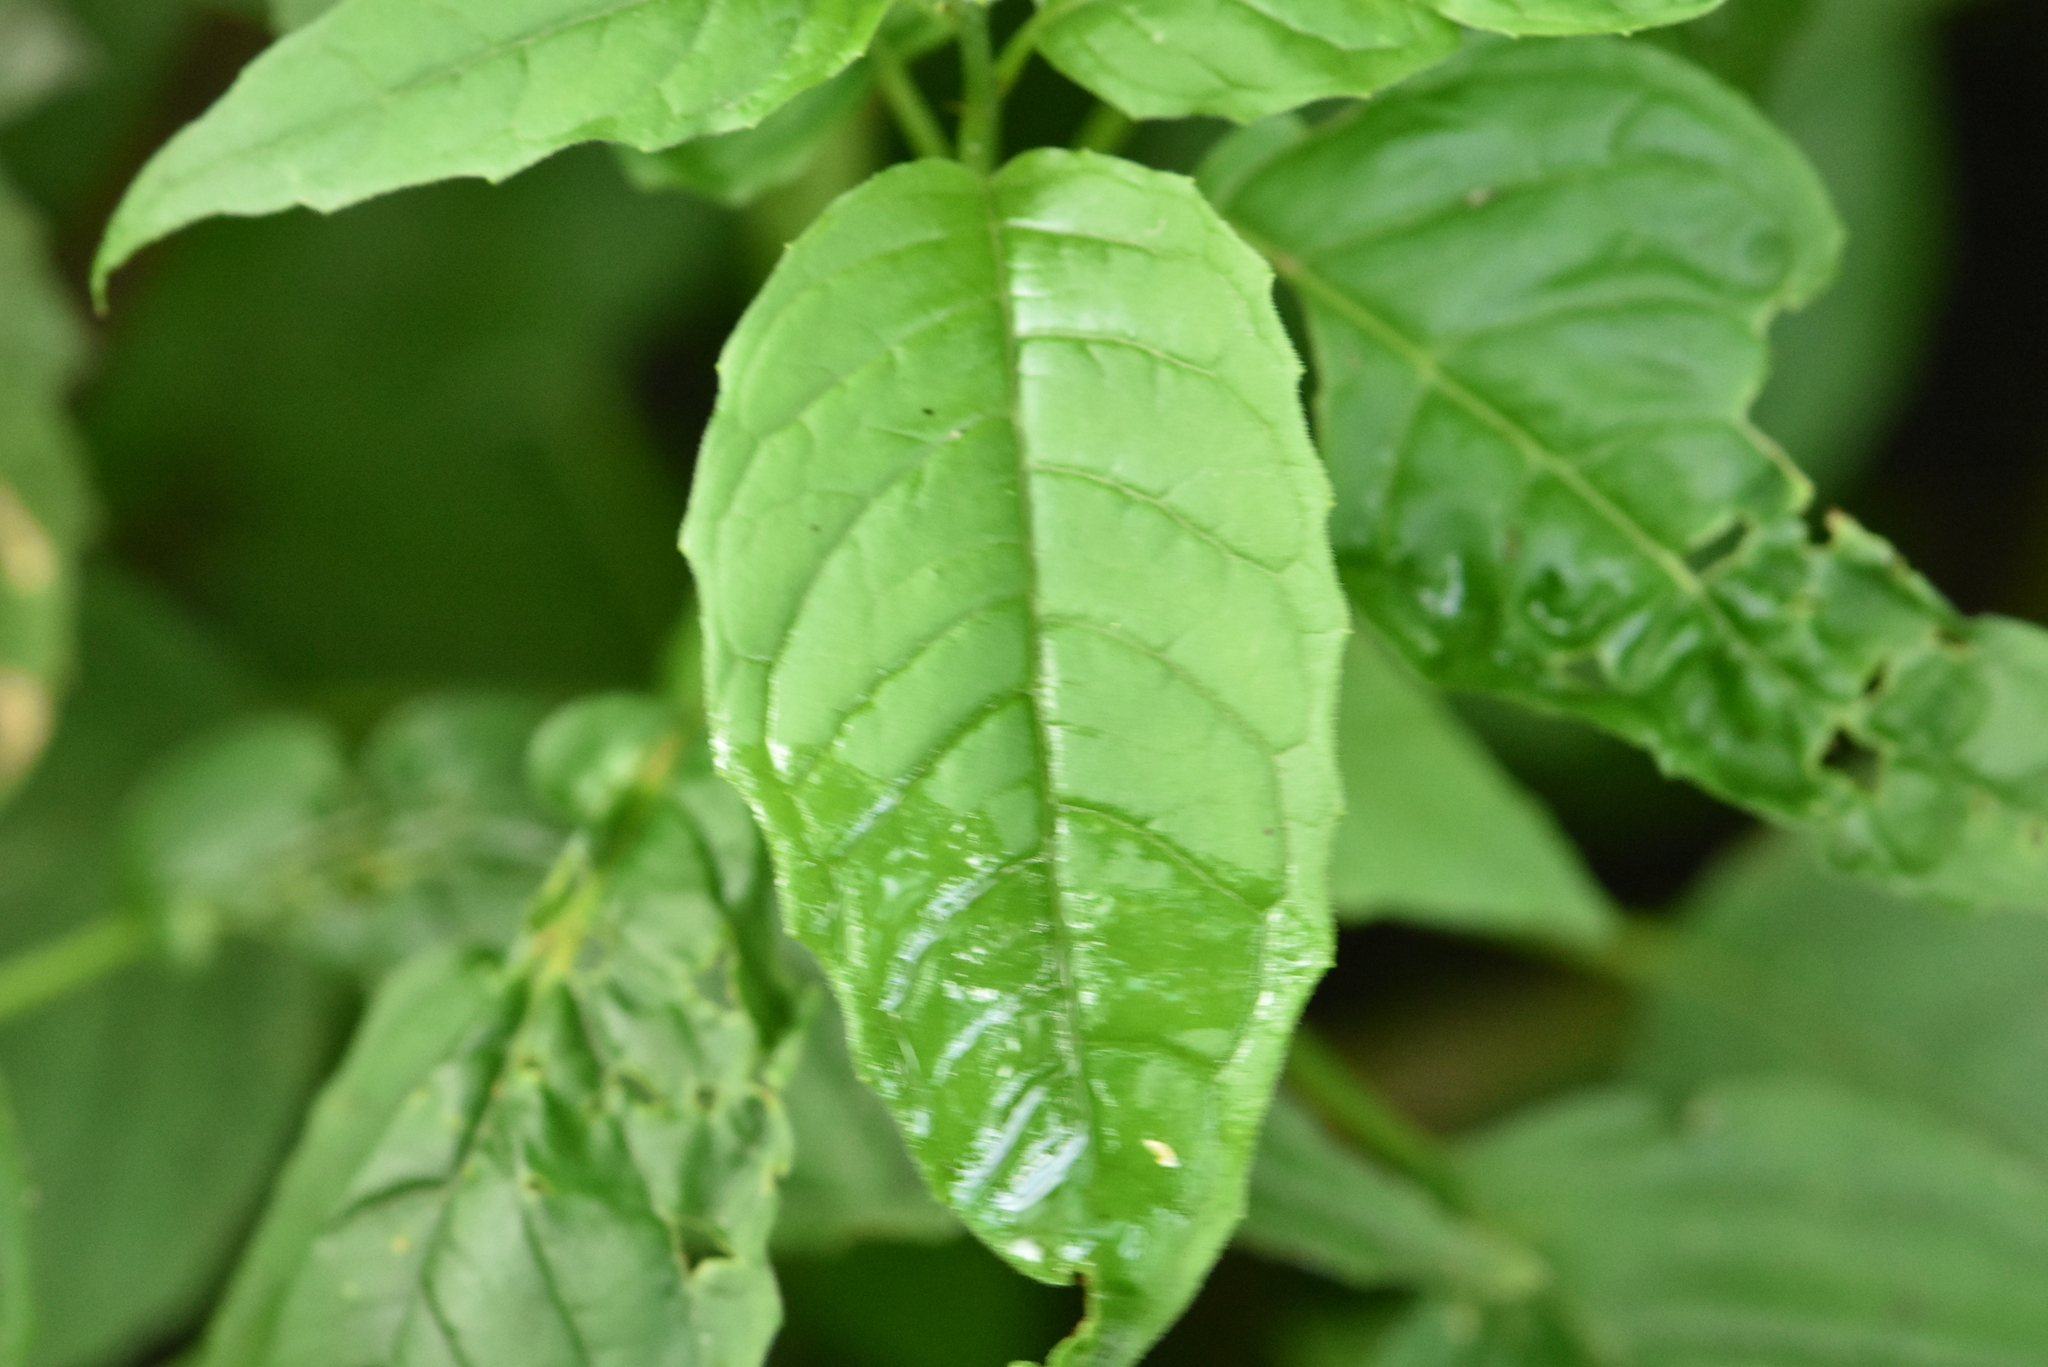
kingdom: Plantae
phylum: Tracheophyta
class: Magnoliopsida
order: Myrtales
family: Onagraceae
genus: Circaea
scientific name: Circaea lutetiana
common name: Enchanter's-nightshade
